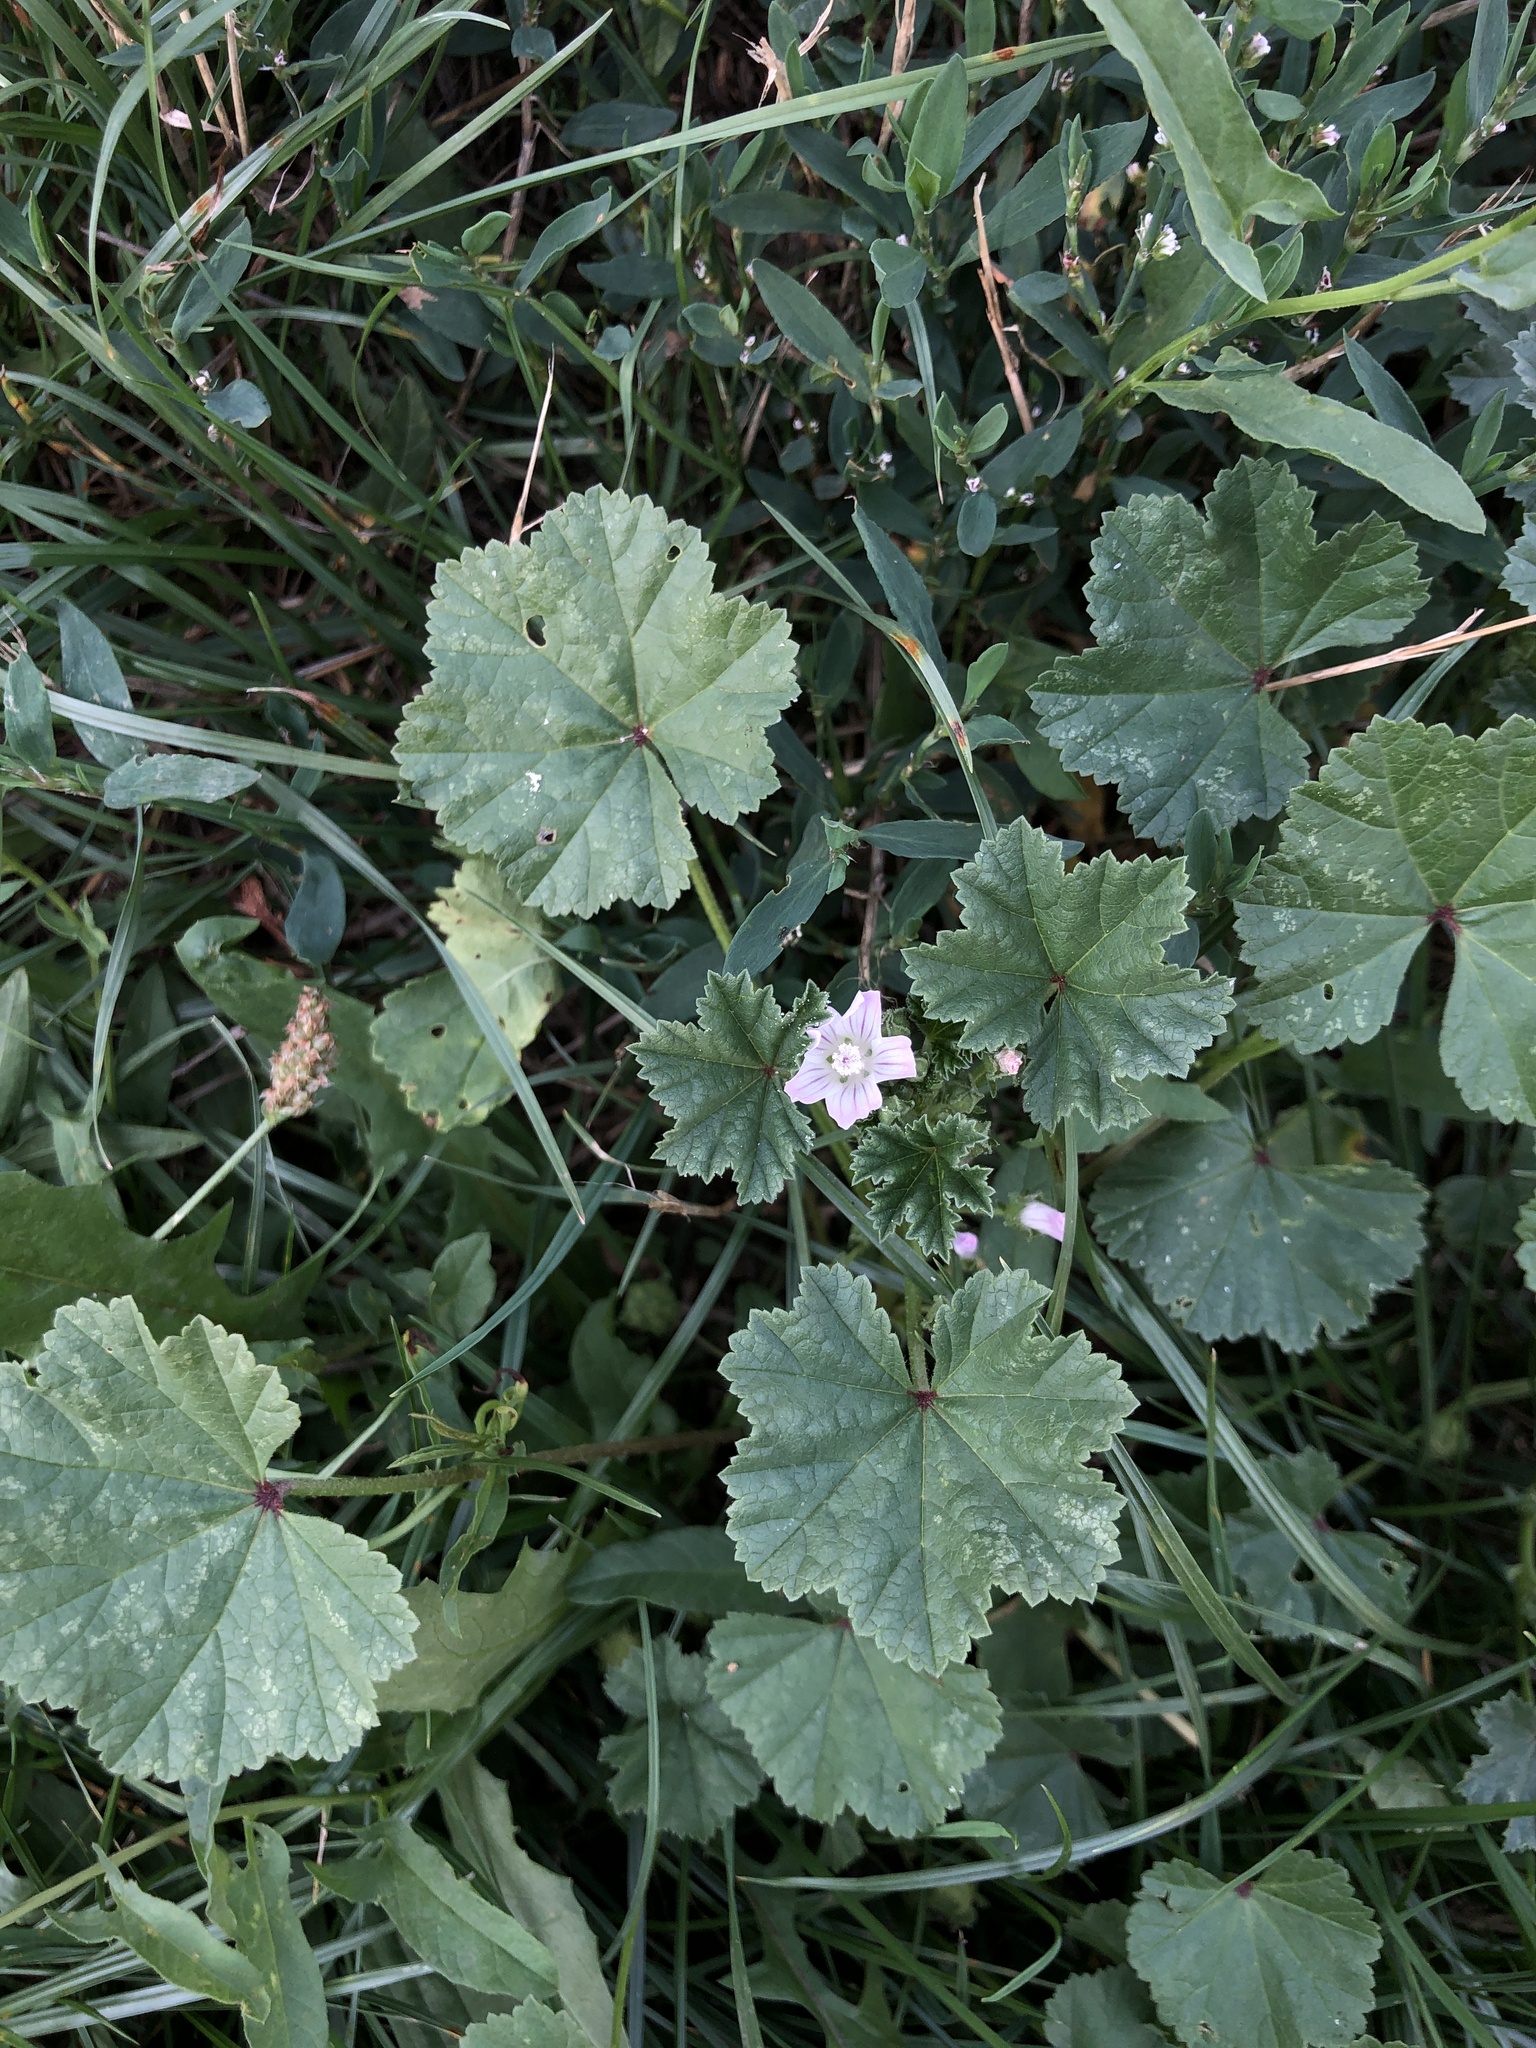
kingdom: Plantae
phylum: Tracheophyta
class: Magnoliopsida
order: Malvales
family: Malvaceae
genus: Malva
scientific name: Malva neglecta
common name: Common mallow
